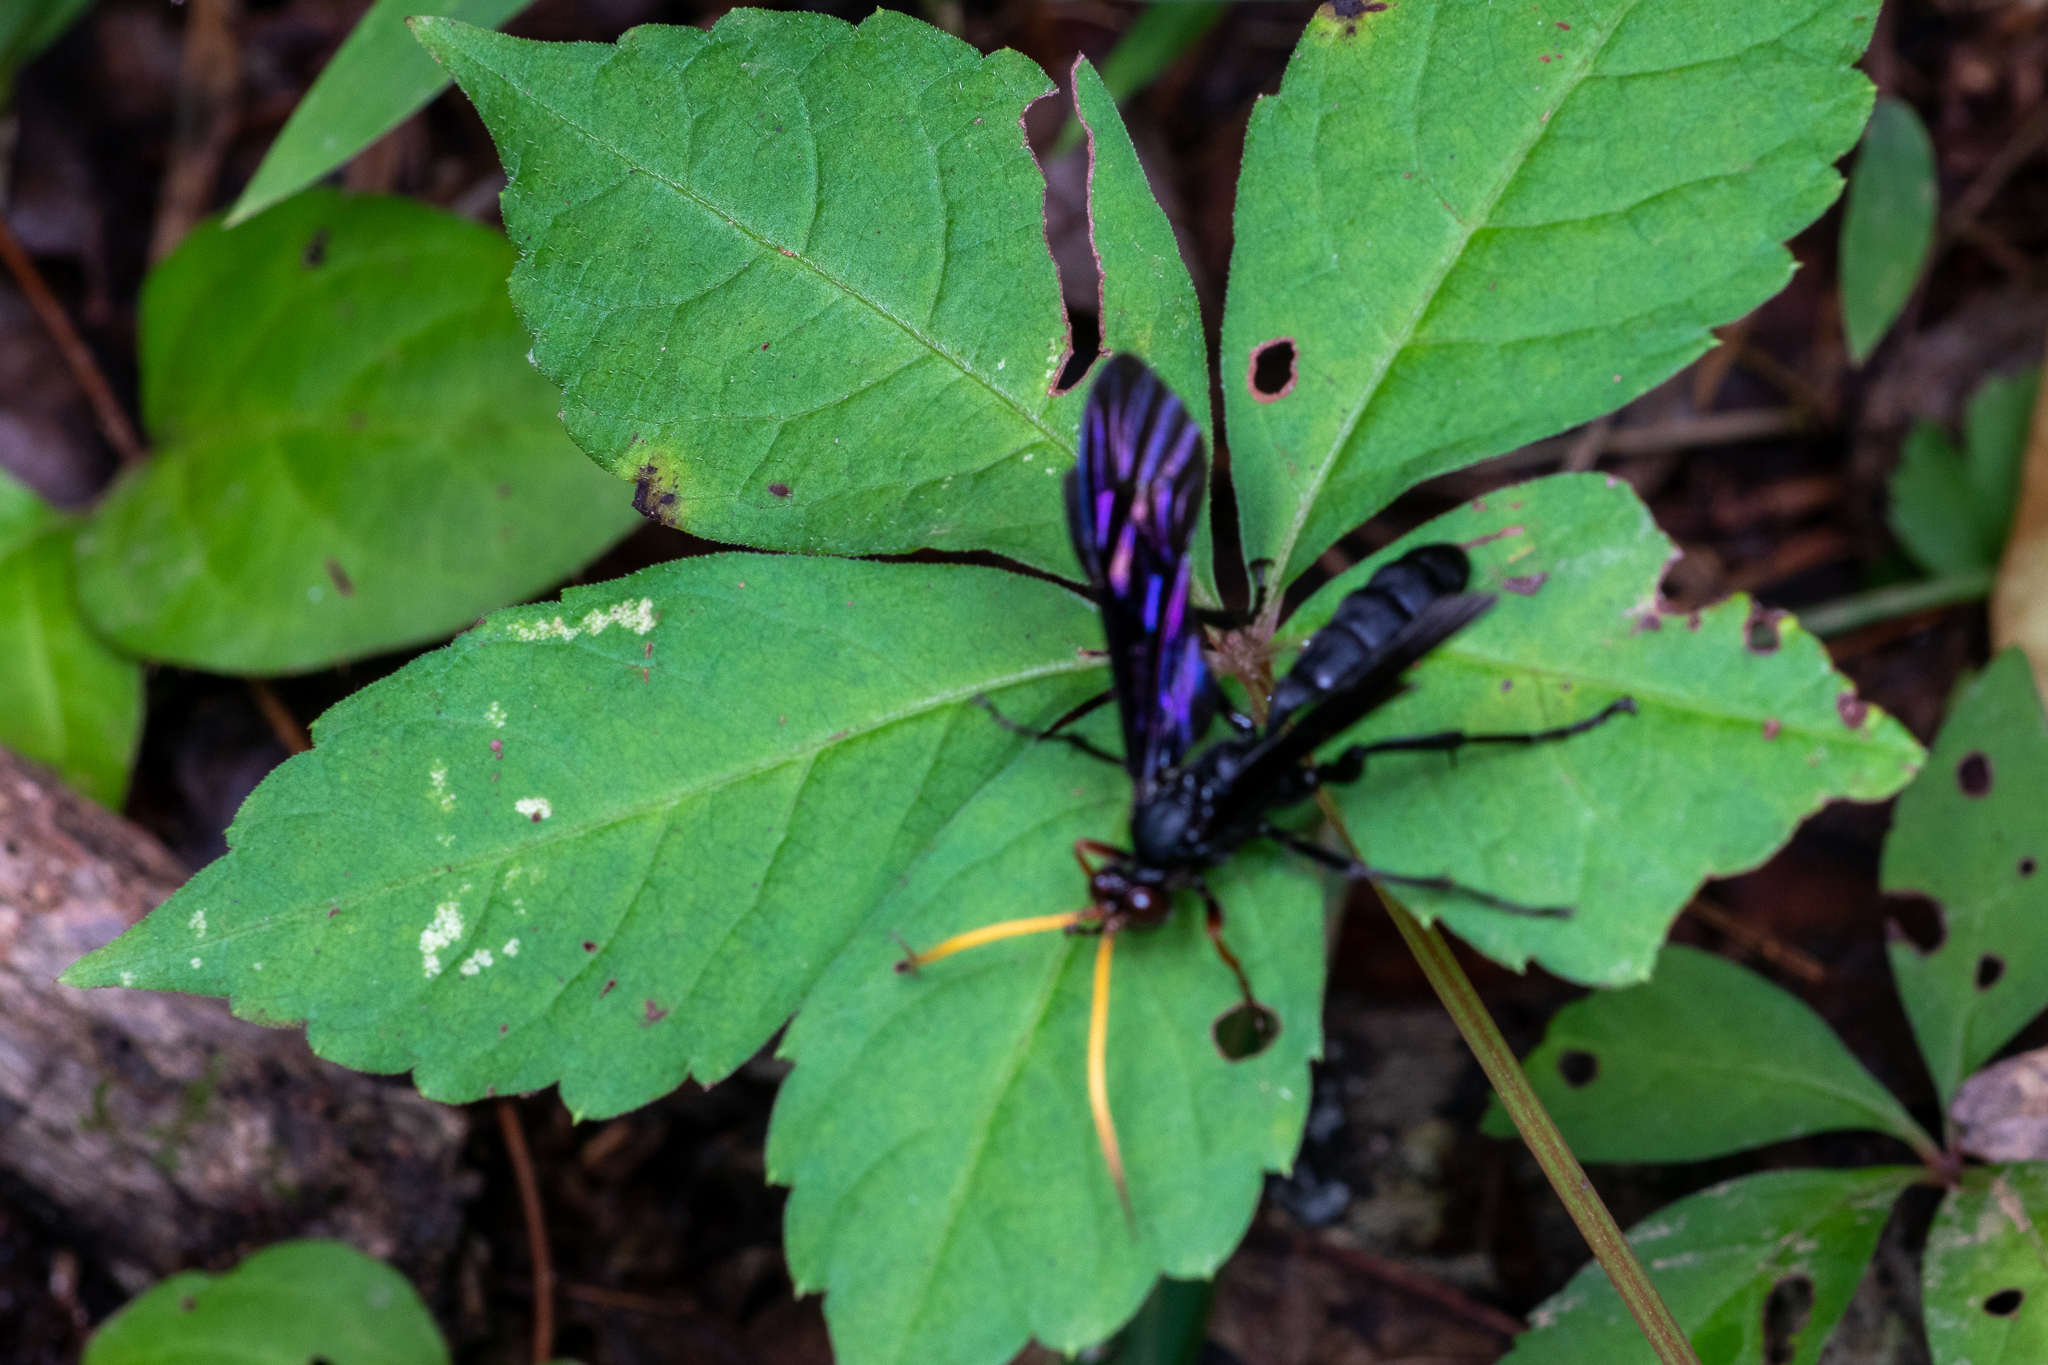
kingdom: Animalia
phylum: Arthropoda
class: Insecta
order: Hymenoptera
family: Ichneumonidae
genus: Gnamptopelta
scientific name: Gnamptopelta obsidianator
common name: Bent-shielded besieger wasp
